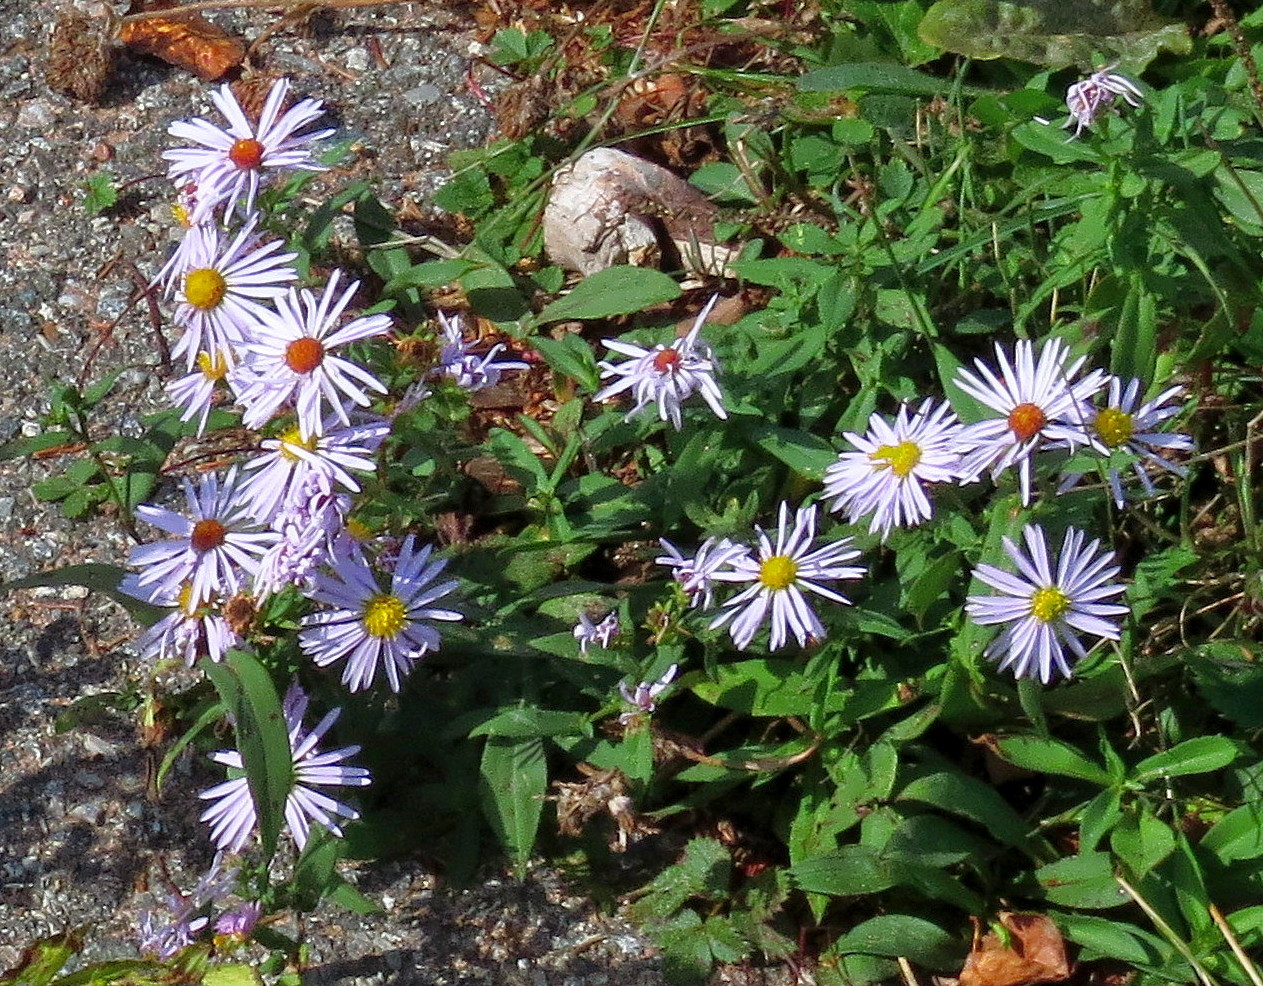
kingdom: Plantae
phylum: Tracheophyta
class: Magnoliopsida
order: Asterales
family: Asteraceae
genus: Symphyotrichum
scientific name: Symphyotrichum novi-belgii
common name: Michaelmas daisy
